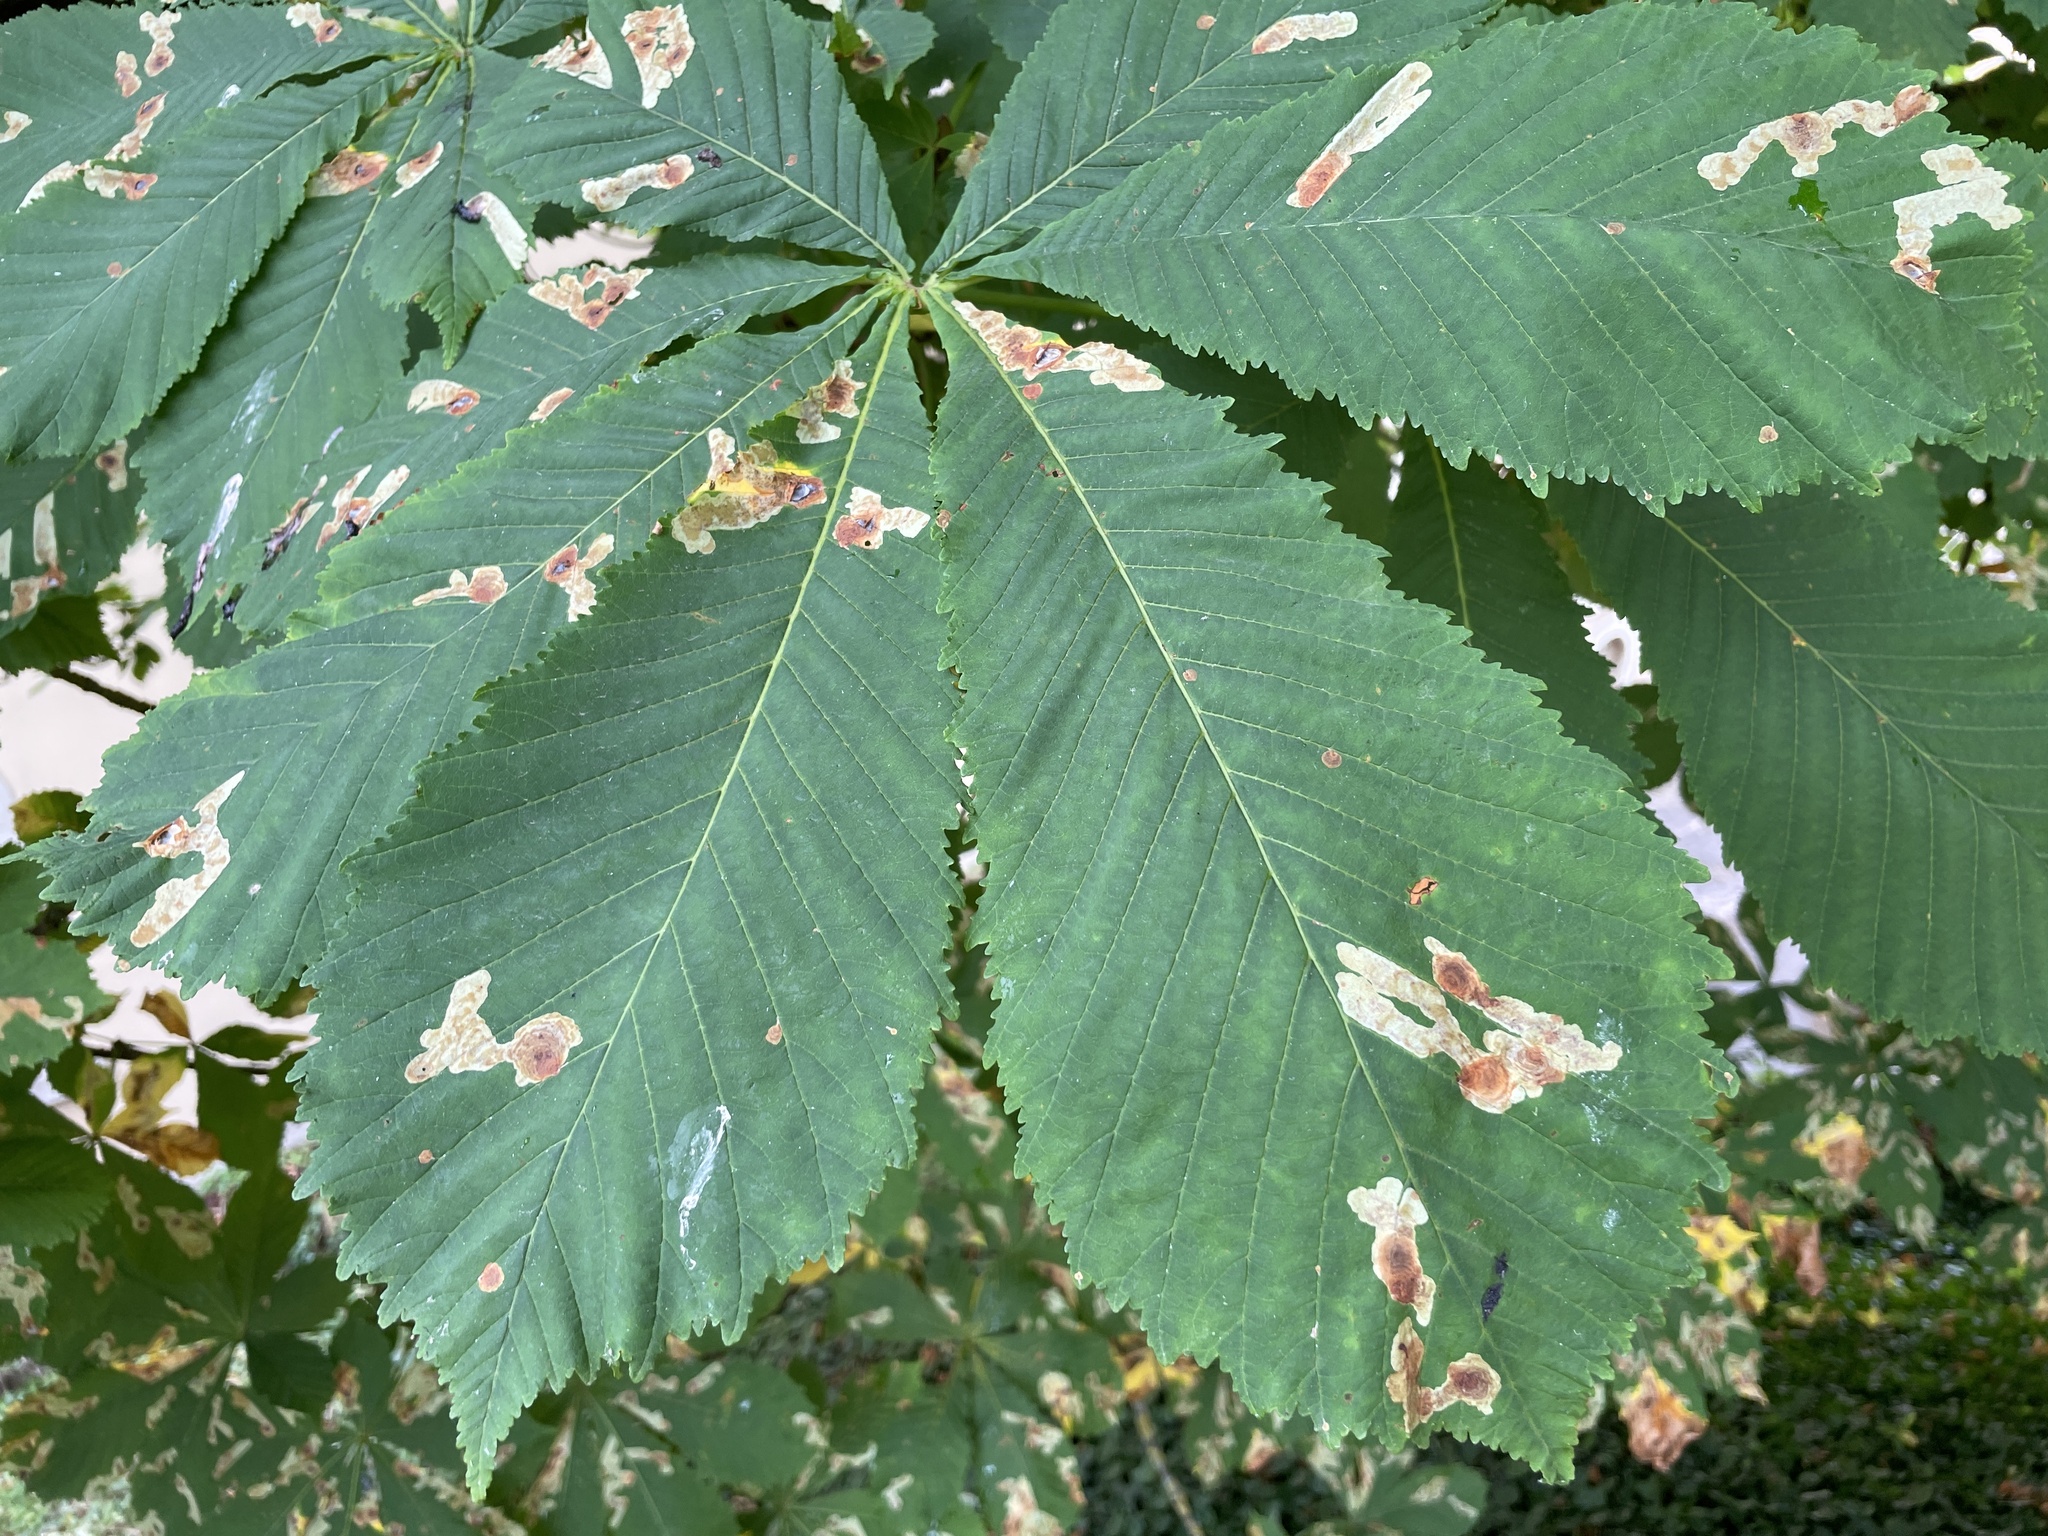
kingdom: Animalia
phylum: Arthropoda
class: Insecta
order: Lepidoptera
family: Gracillariidae
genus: Cameraria
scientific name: Cameraria ohridella
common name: Horse-chestnut leaf-miner
